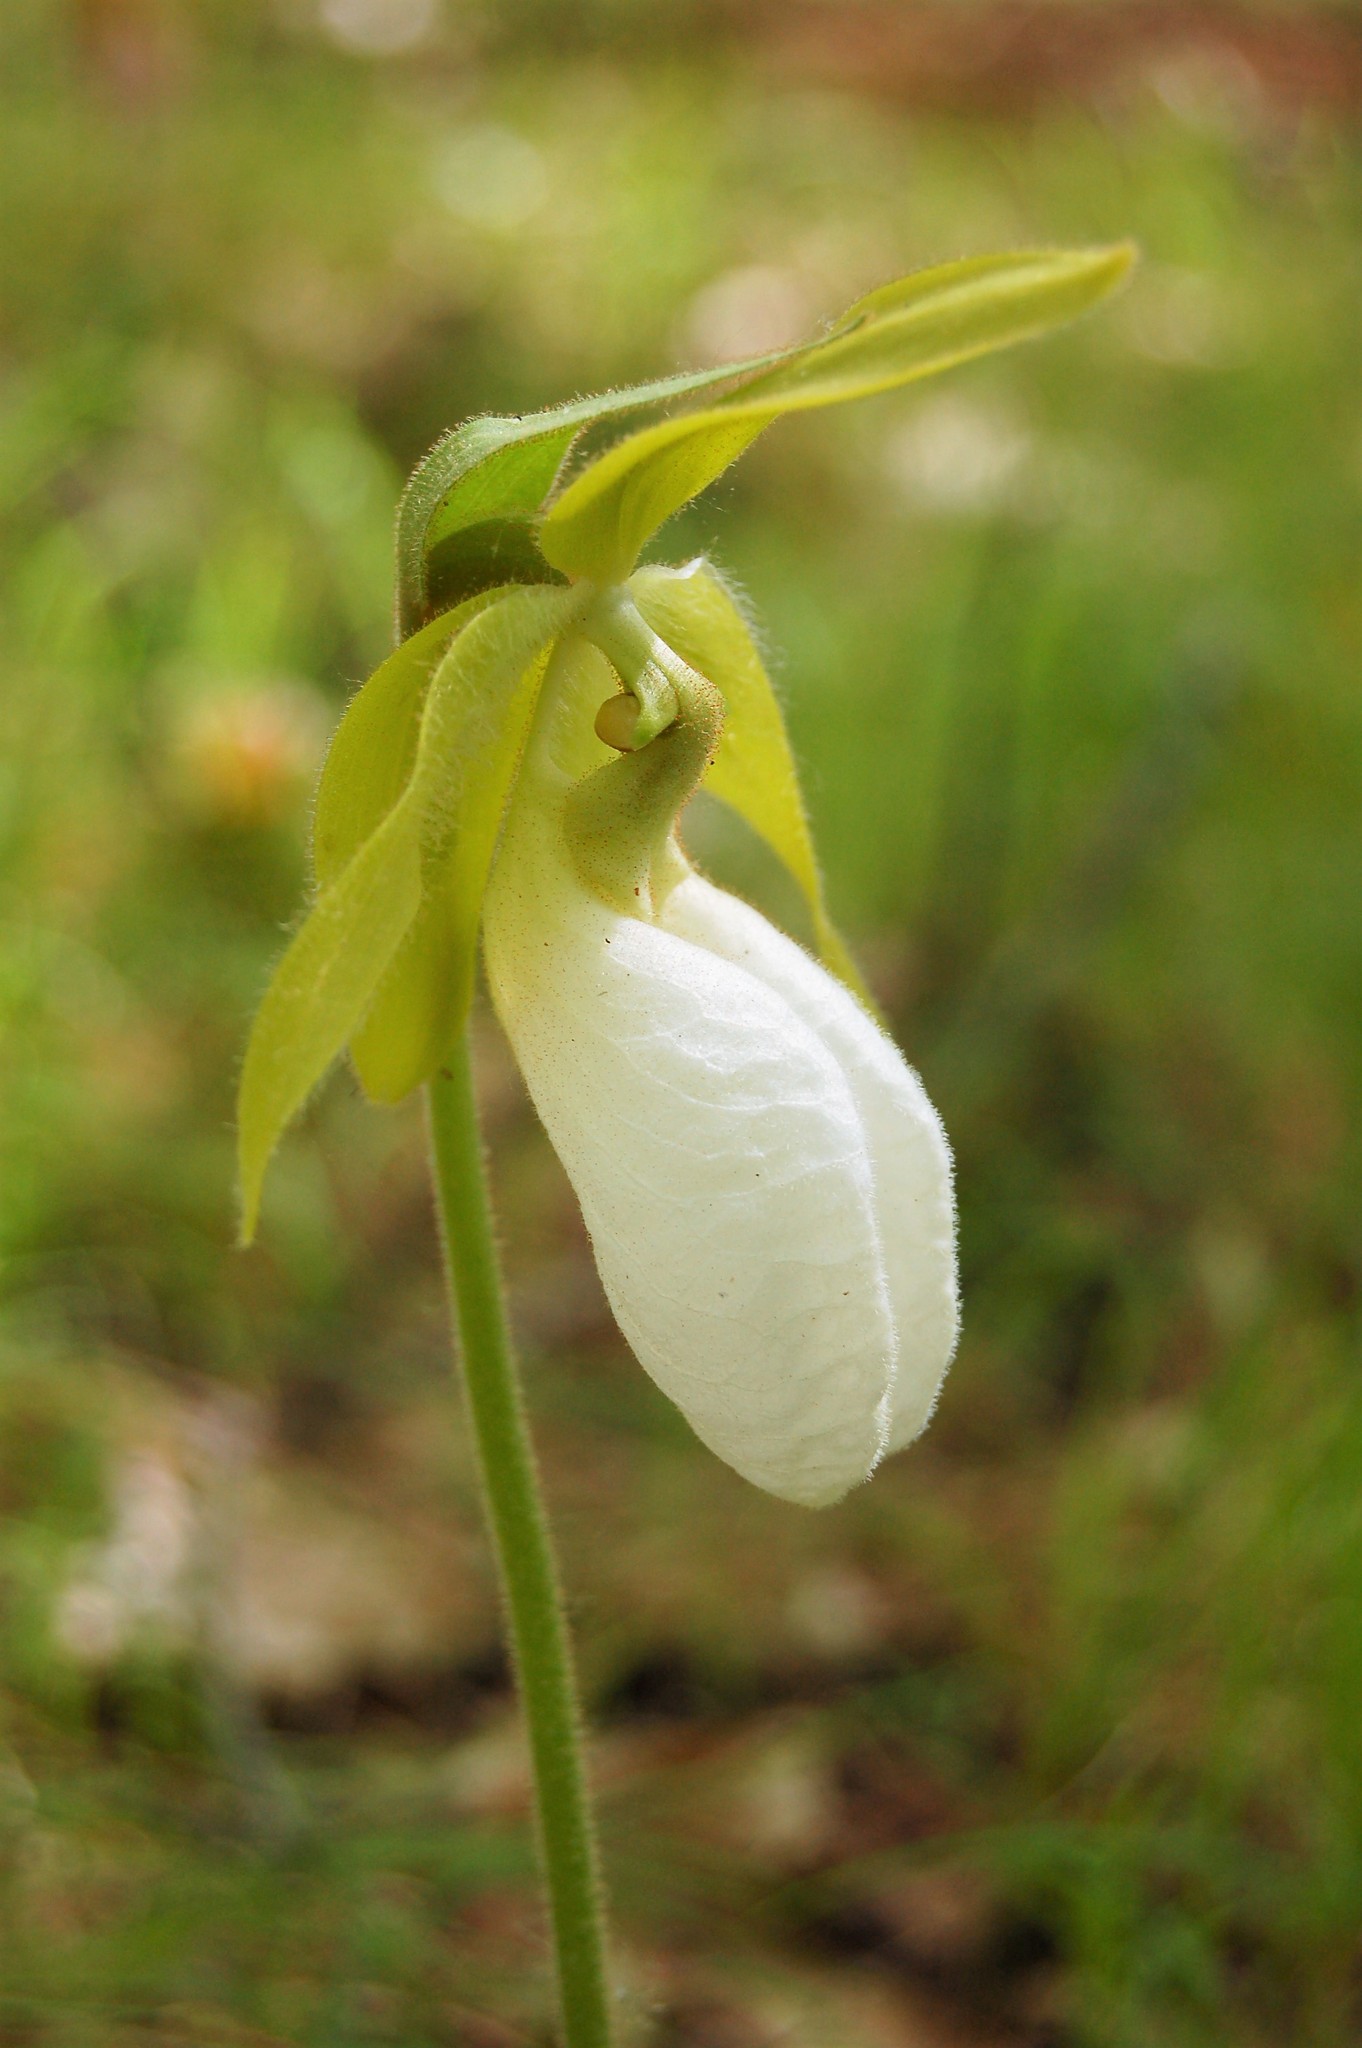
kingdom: Plantae
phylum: Tracheophyta
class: Liliopsida
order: Asparagales
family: Orchidaceae
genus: Cypripedium
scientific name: Cypripedium acaule
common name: Pink lady's-slipper
